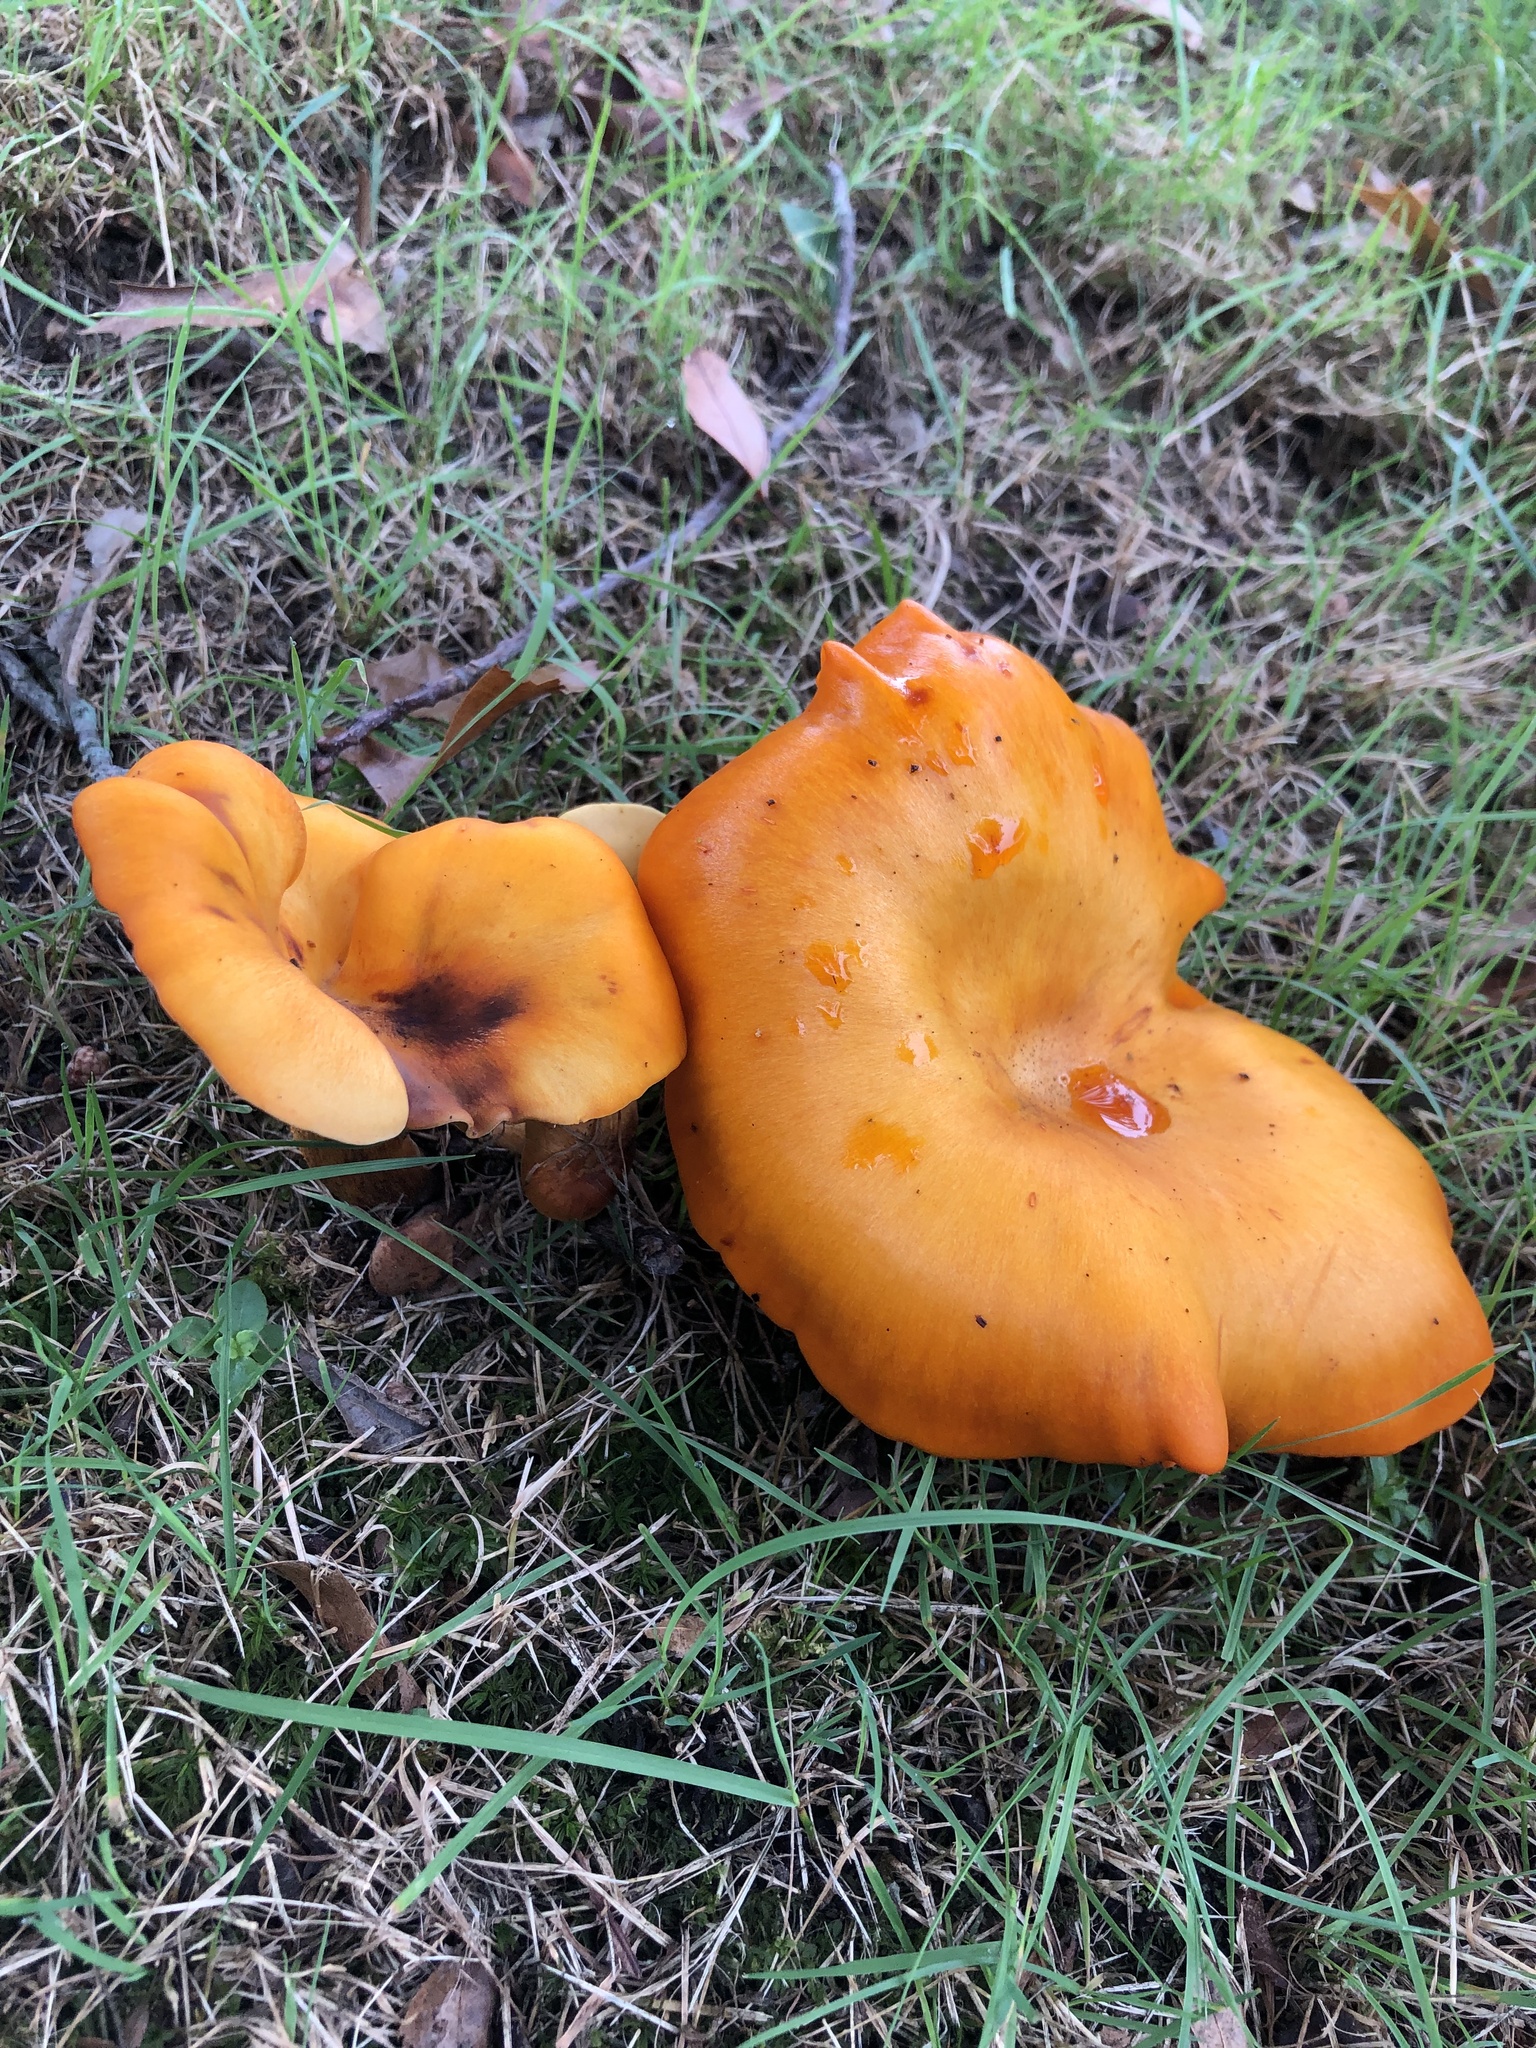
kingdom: Fungi
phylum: Basidiomycota
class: Agaricomycetes
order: Agaricales
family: Omphalotaceae
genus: Omphalotus
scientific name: Omphalotus illudens
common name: Jack o lantern
